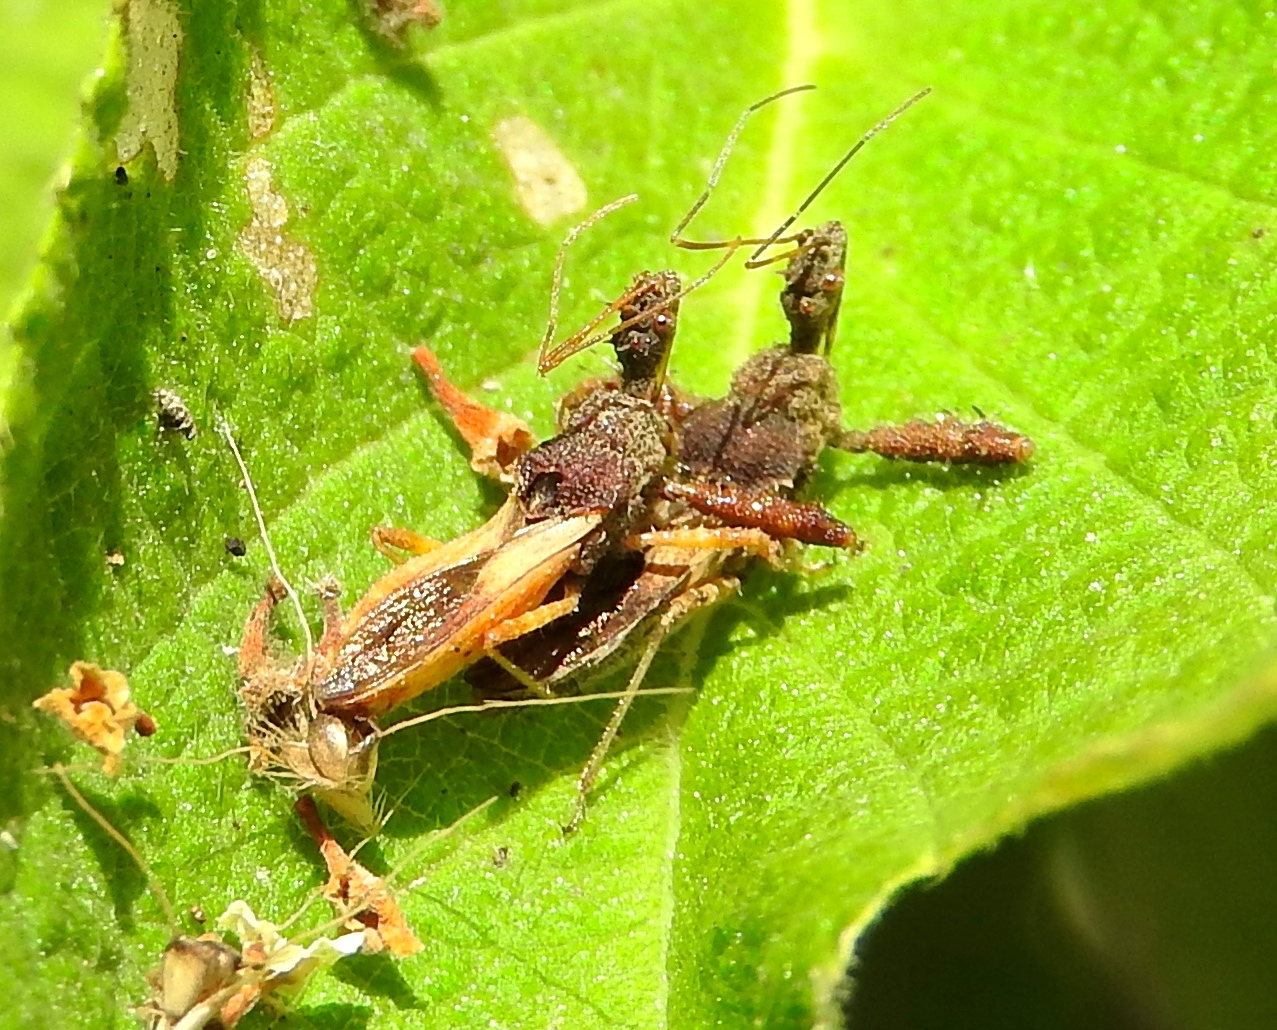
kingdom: Animalia
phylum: Arthropoda
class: Insecta
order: Hemiptera
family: Reduviidae
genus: Sinea
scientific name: Sinea
